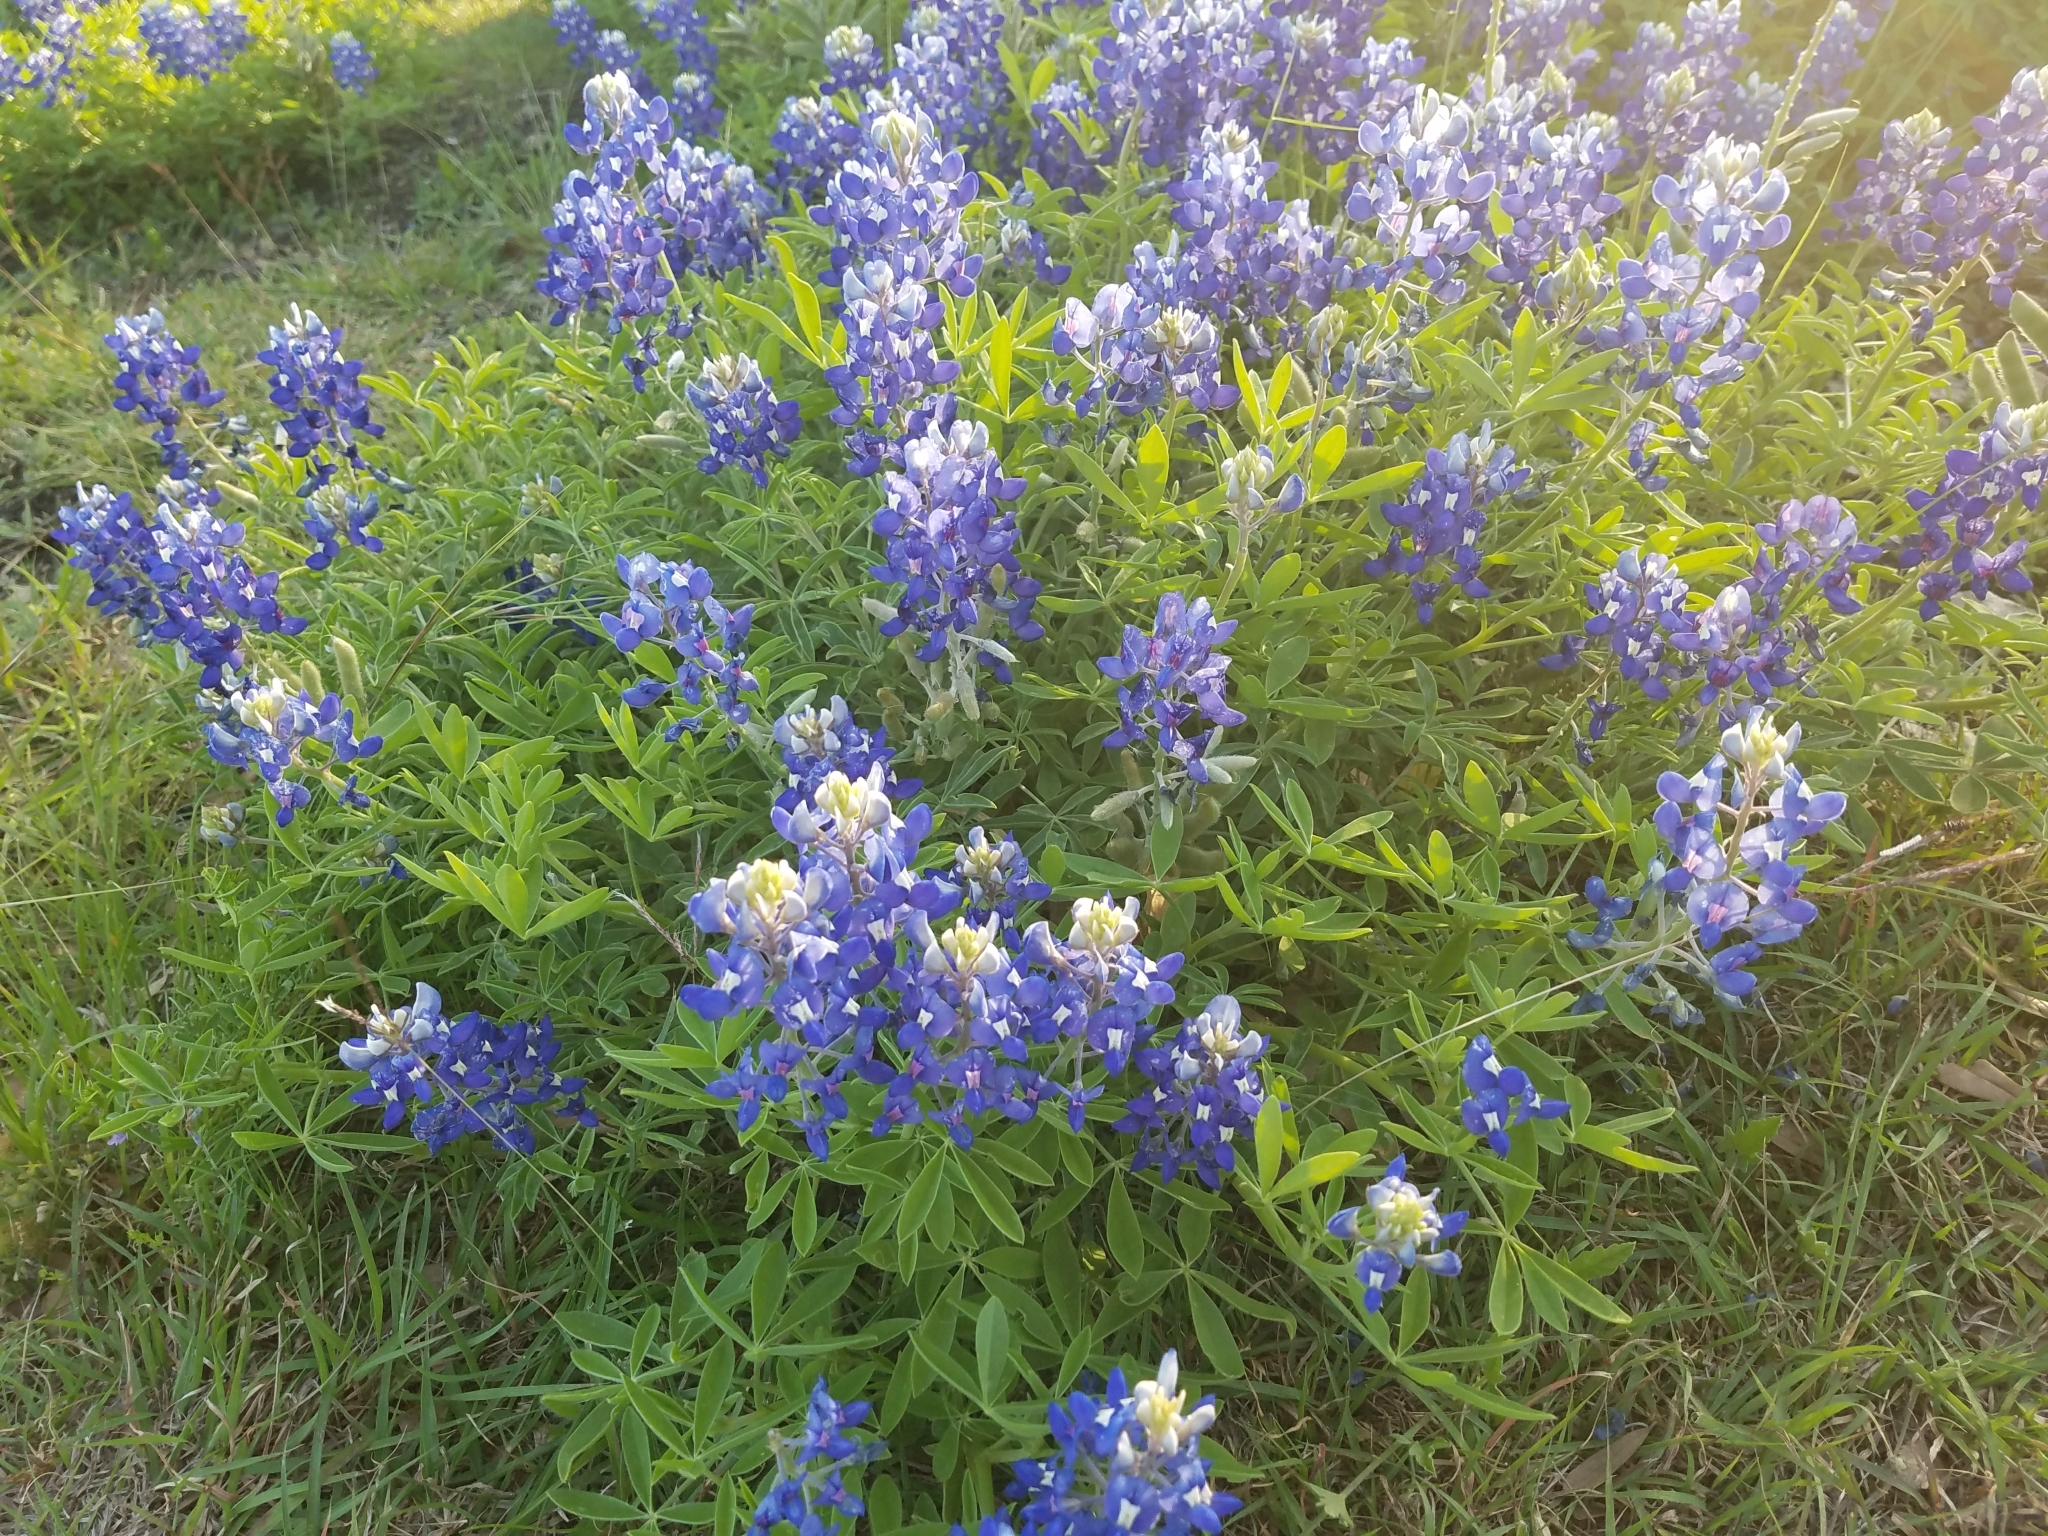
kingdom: Plantae
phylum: Tracheophyta
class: Magnoliopsida
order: Fabales
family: Fabaceae
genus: Lupinus
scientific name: Lupinus texensis
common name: Texas bluebonnet
